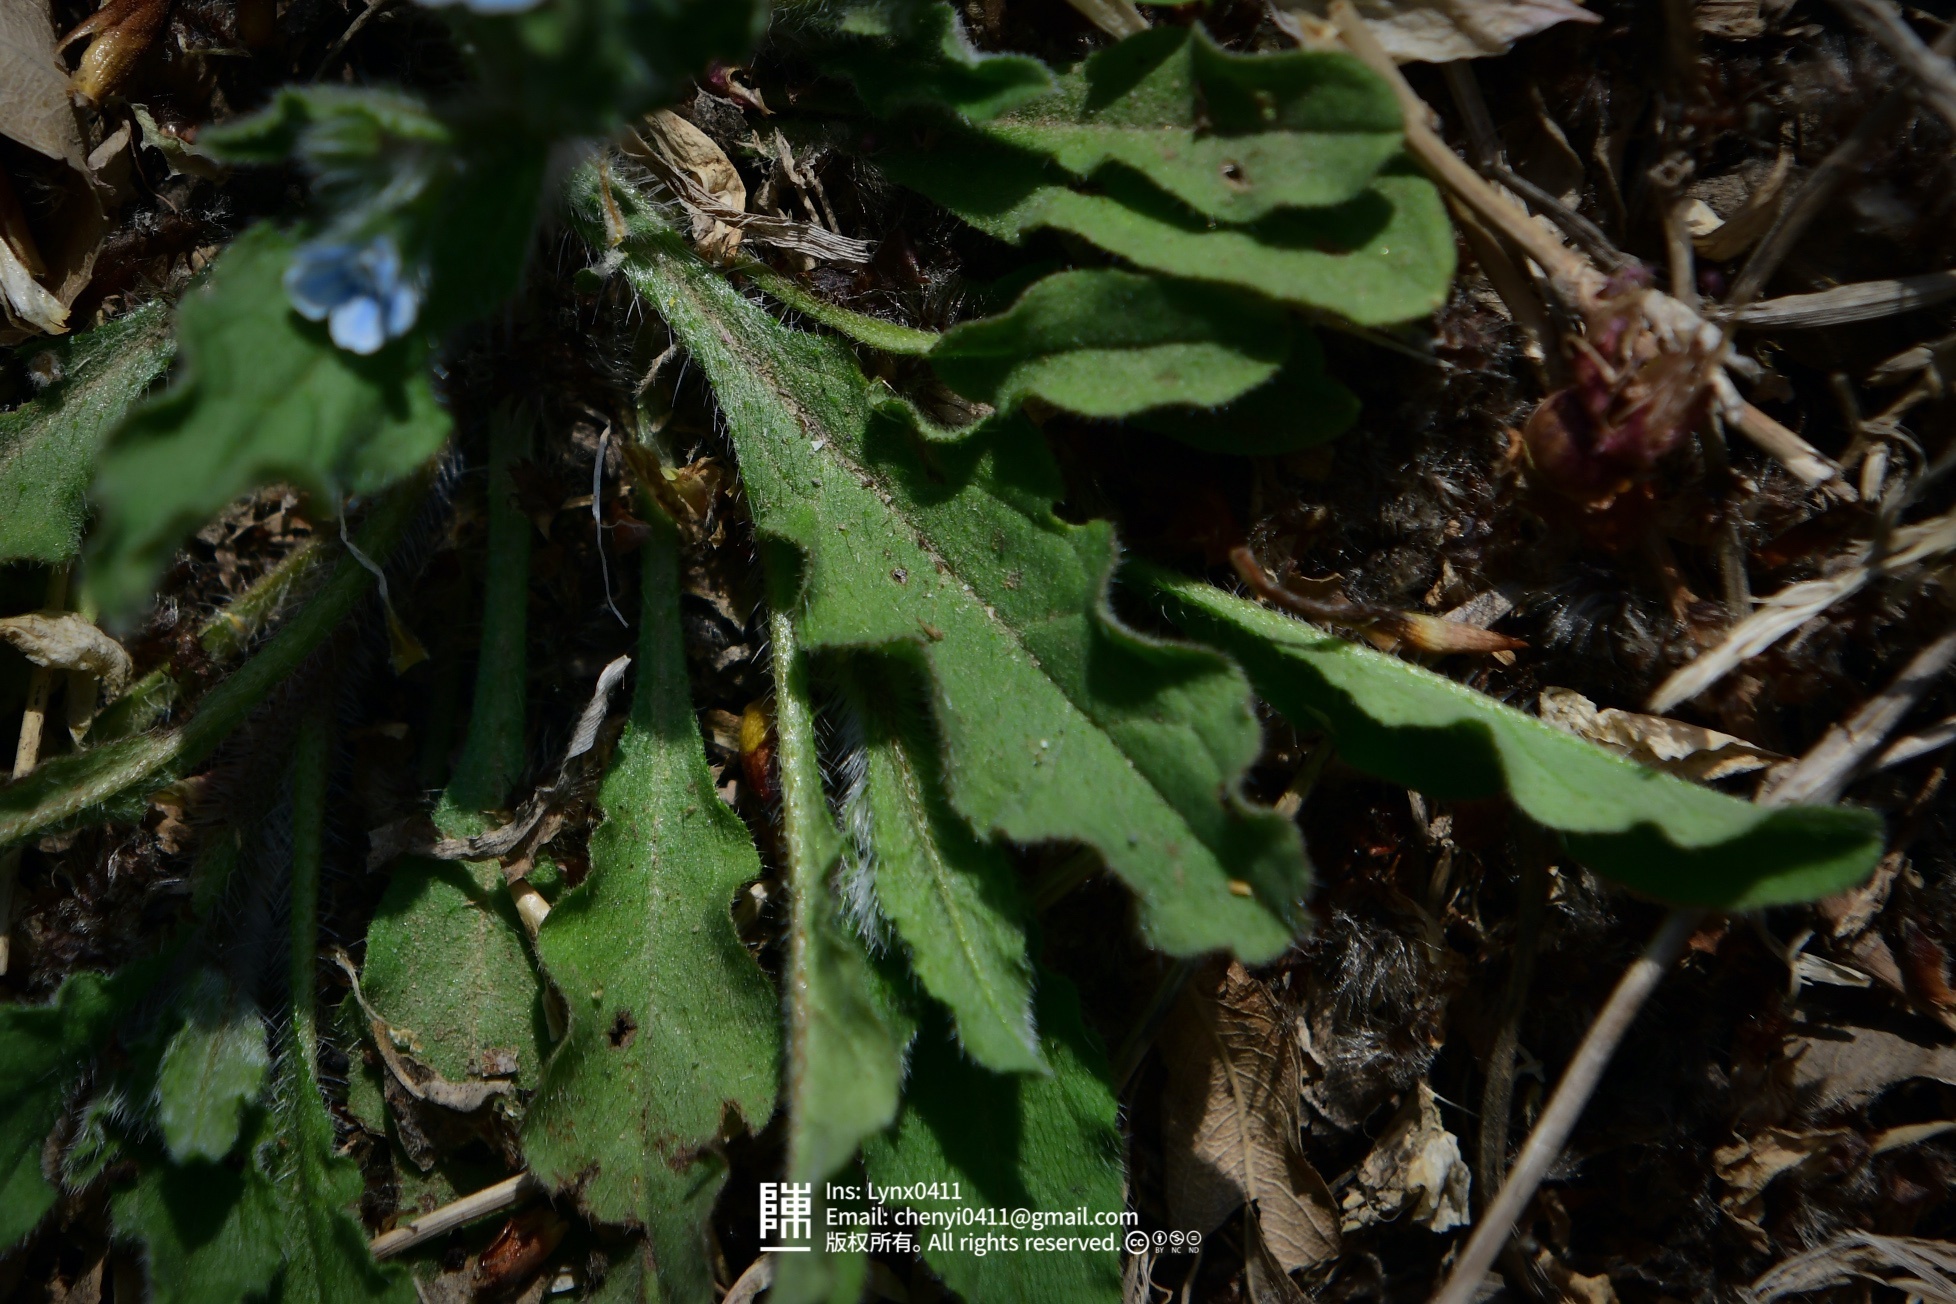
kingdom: Plantae
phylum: Tracheophyta
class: Magnoliopsida
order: Boraginales
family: Boraginaceae
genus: Bothriospermum
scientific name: Bothriospermum chinense
